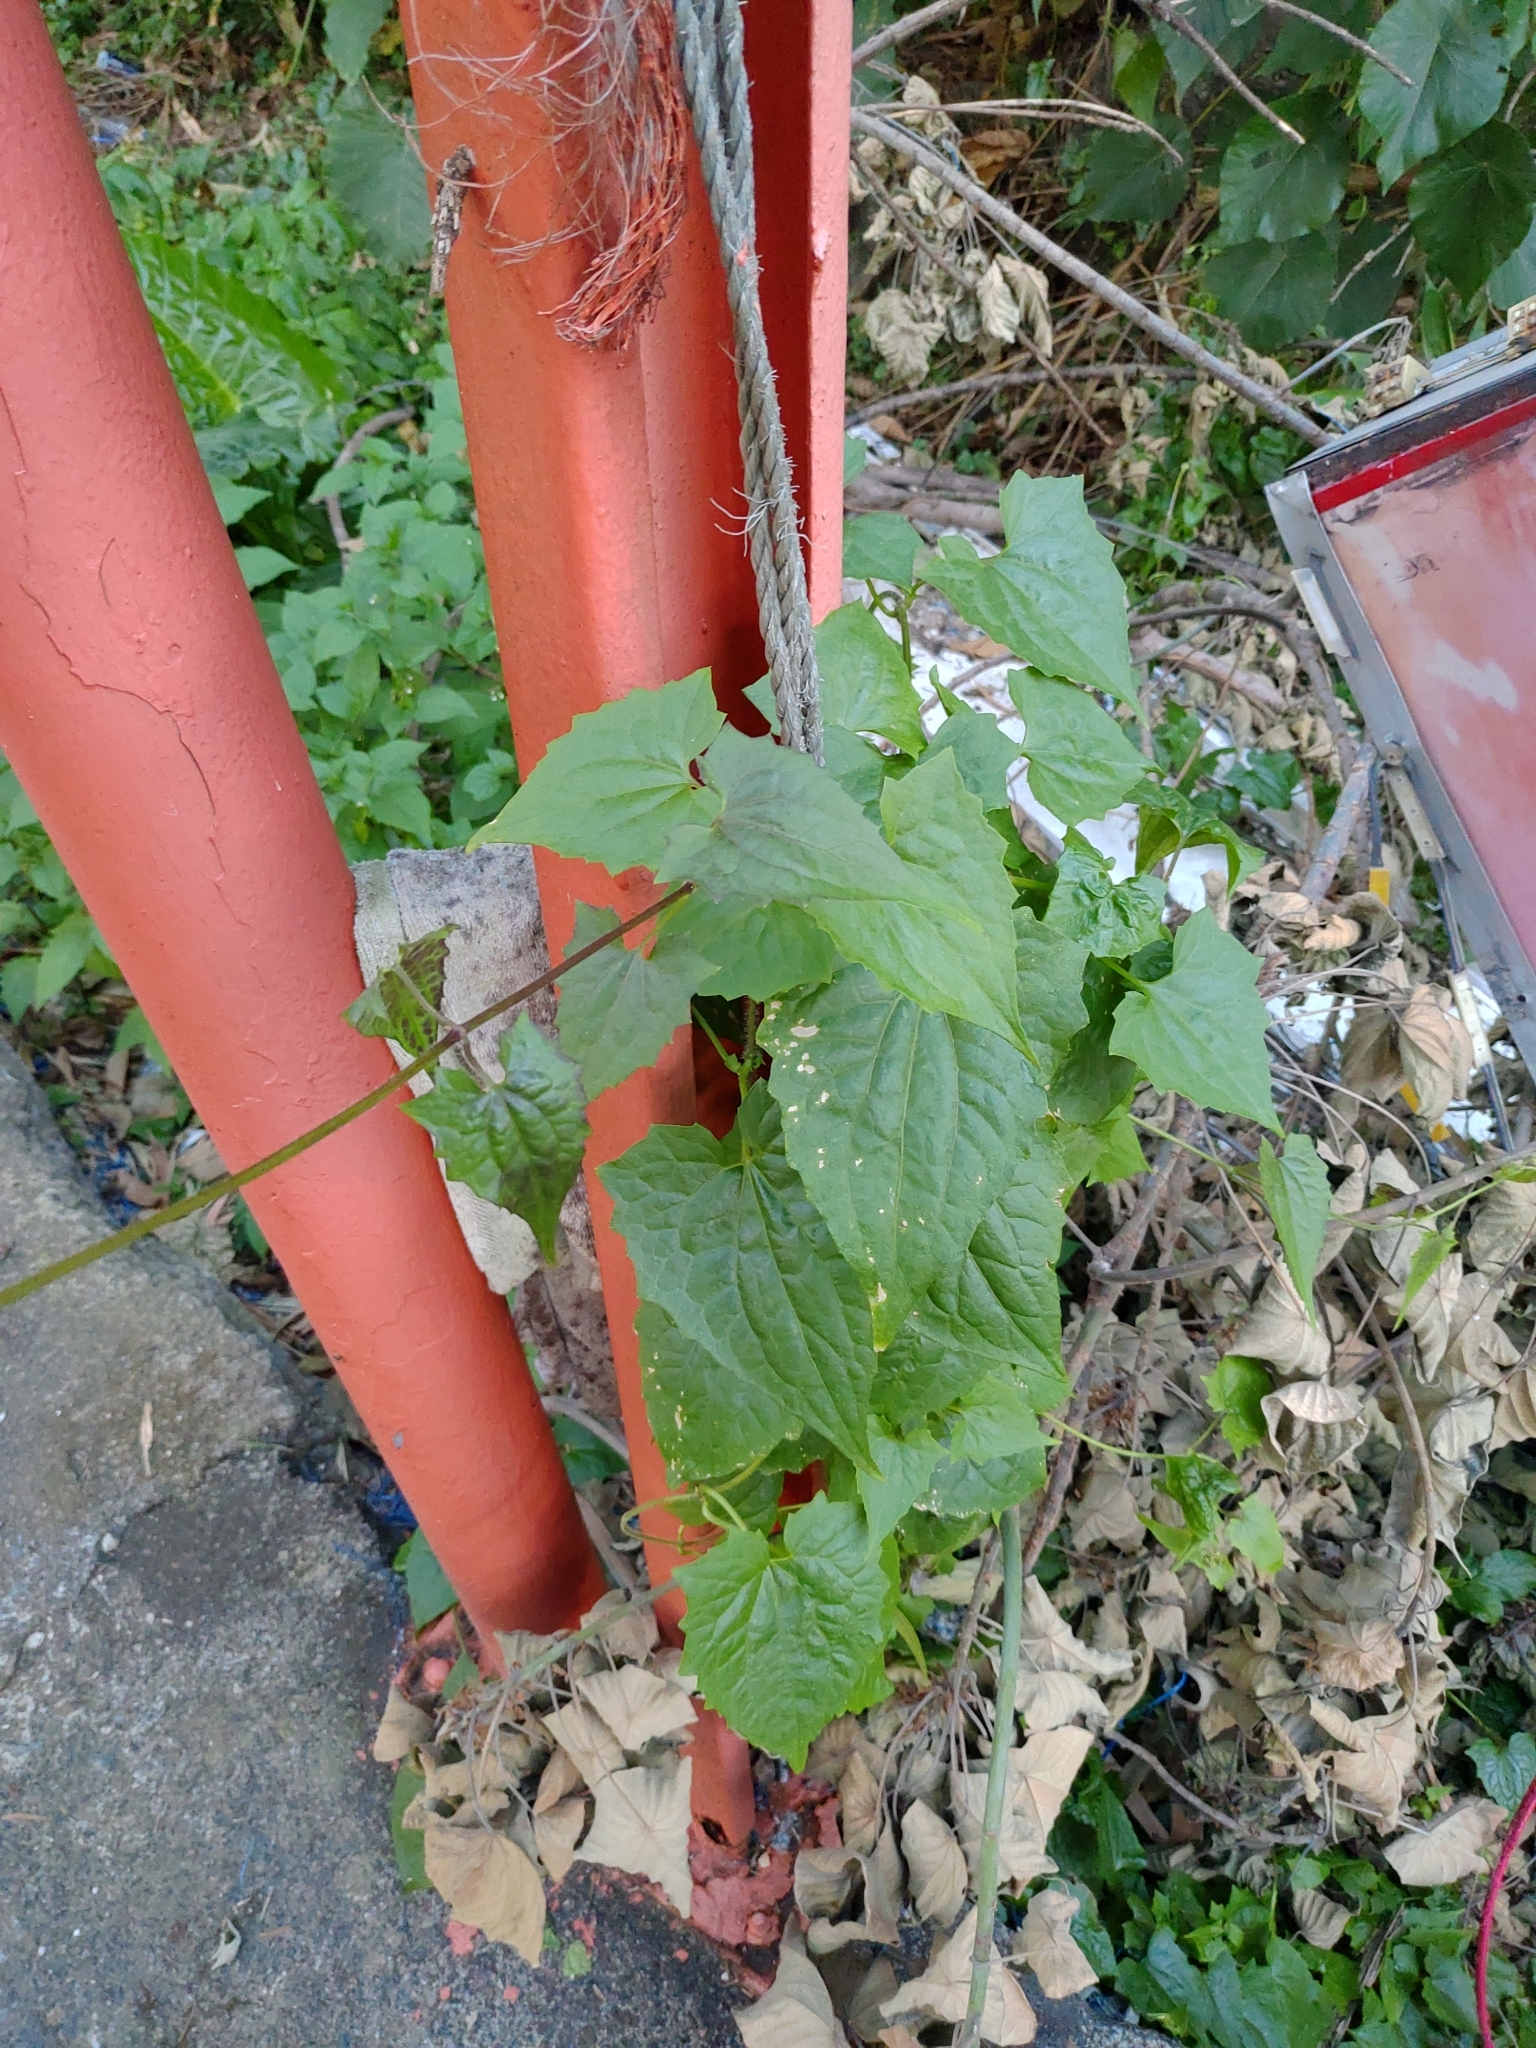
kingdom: Plantae
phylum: Tracheophyta
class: Magnoliopsida
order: Asterales
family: Asteraceae
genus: Mikania
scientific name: Mikania micrantha
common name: Mile-a-minute
